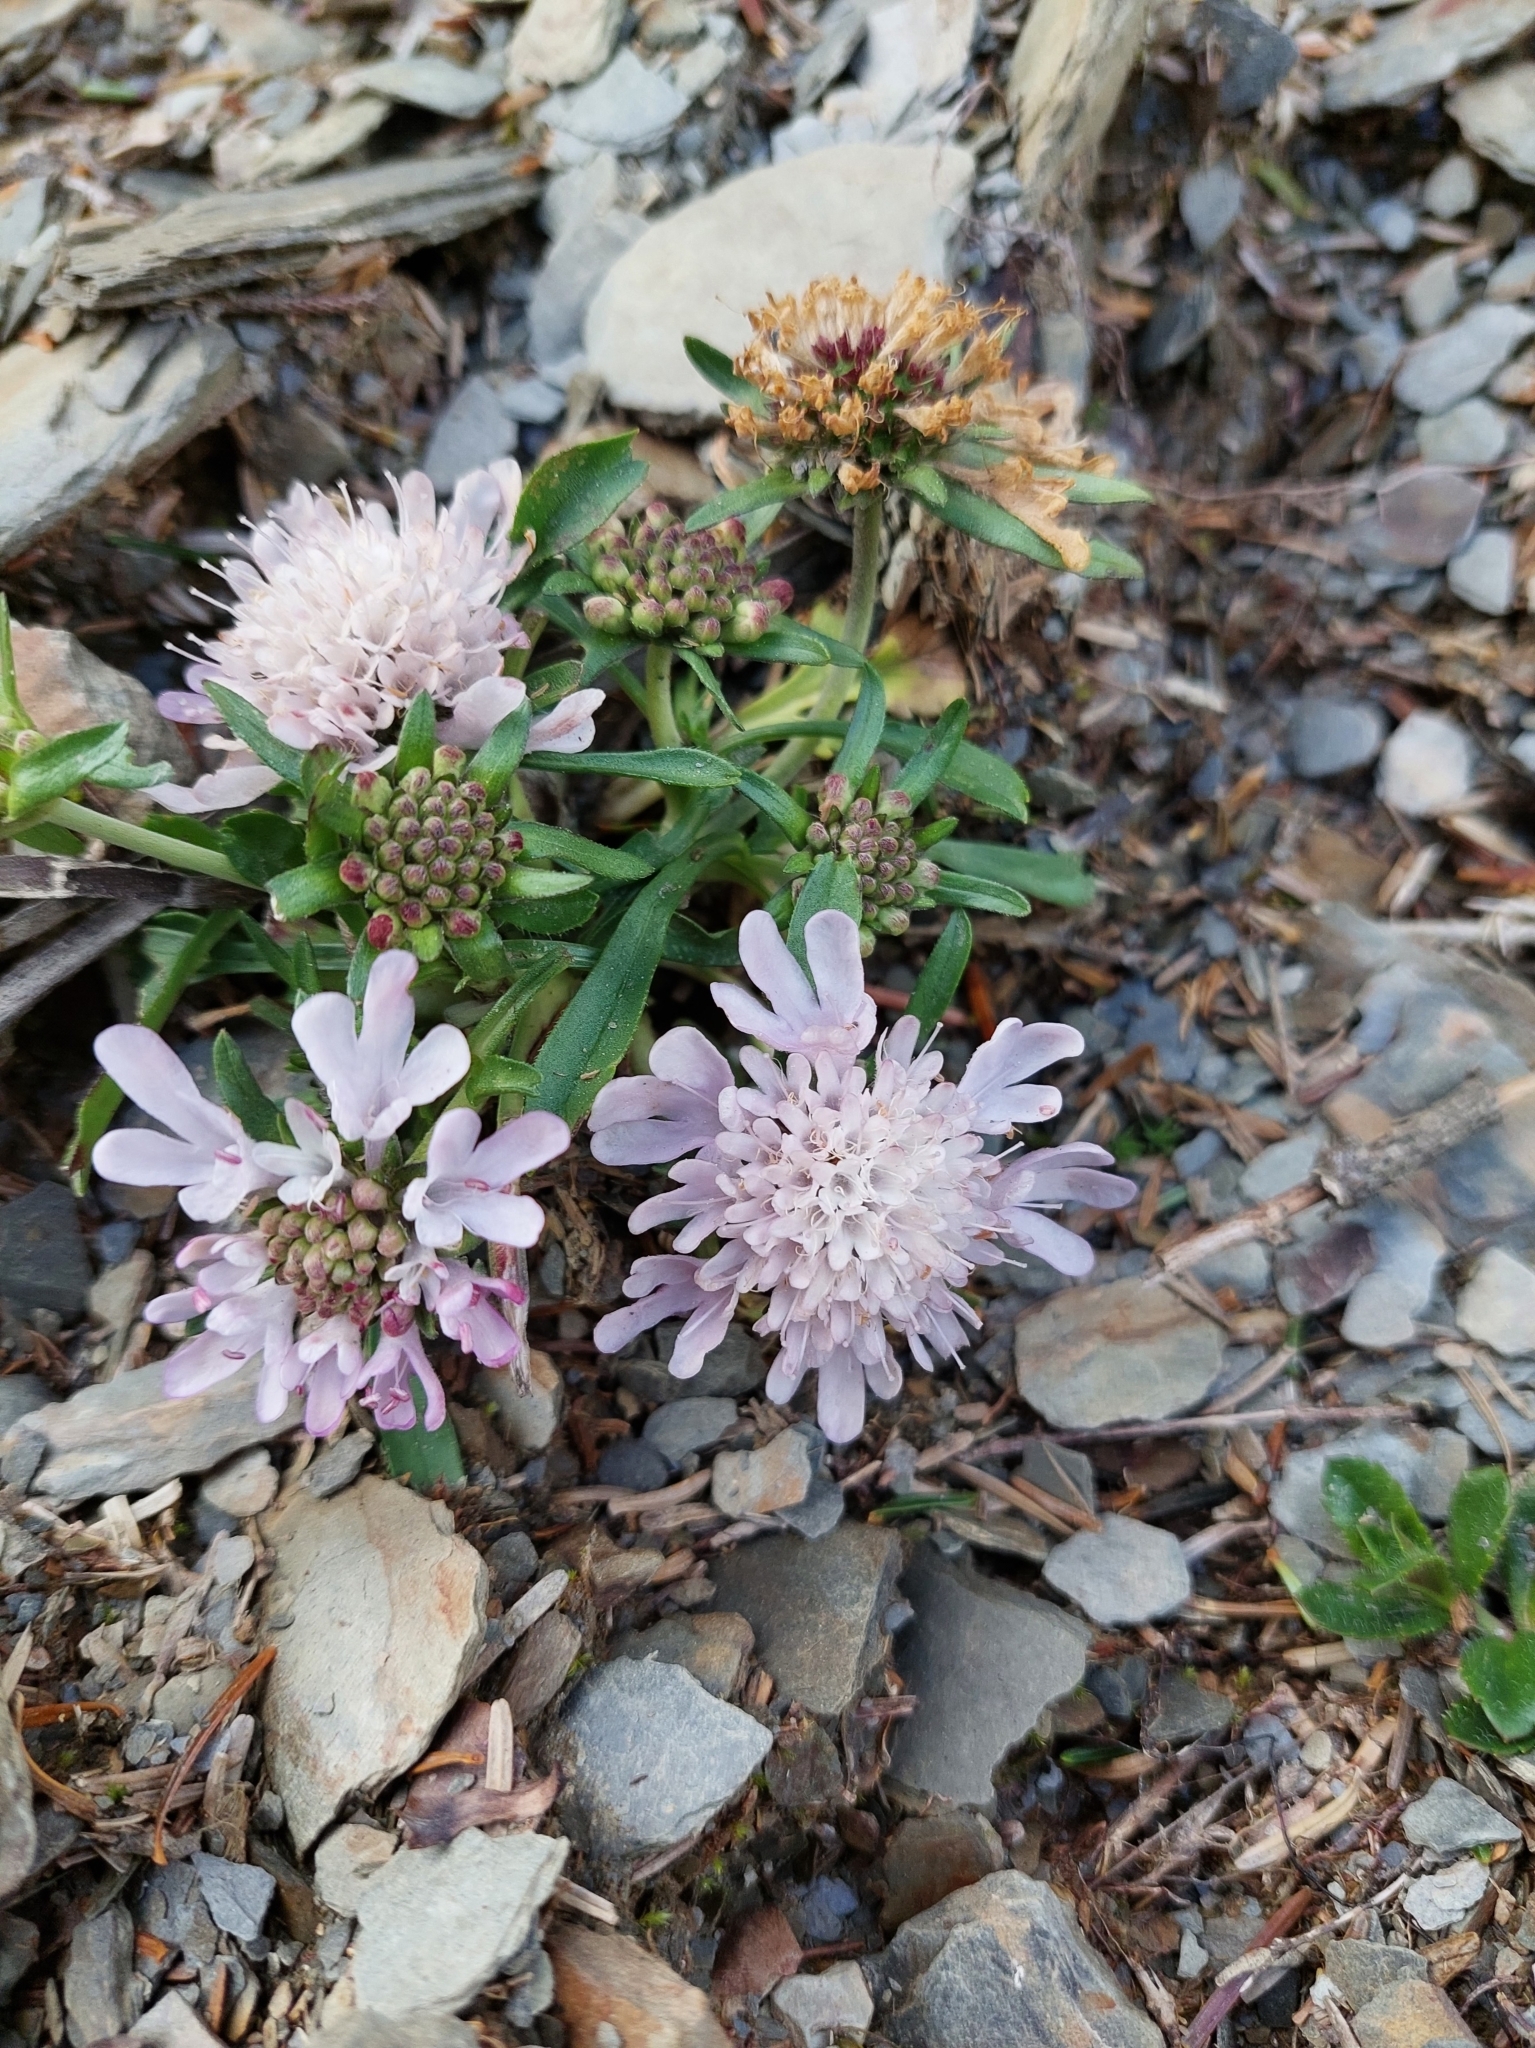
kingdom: Plantae
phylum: Tracheophyta
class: Magnoliopsida
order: Dipsacales
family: Caprifoliaceae
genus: Scabiosa
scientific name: Scabiosa lacerifolia
